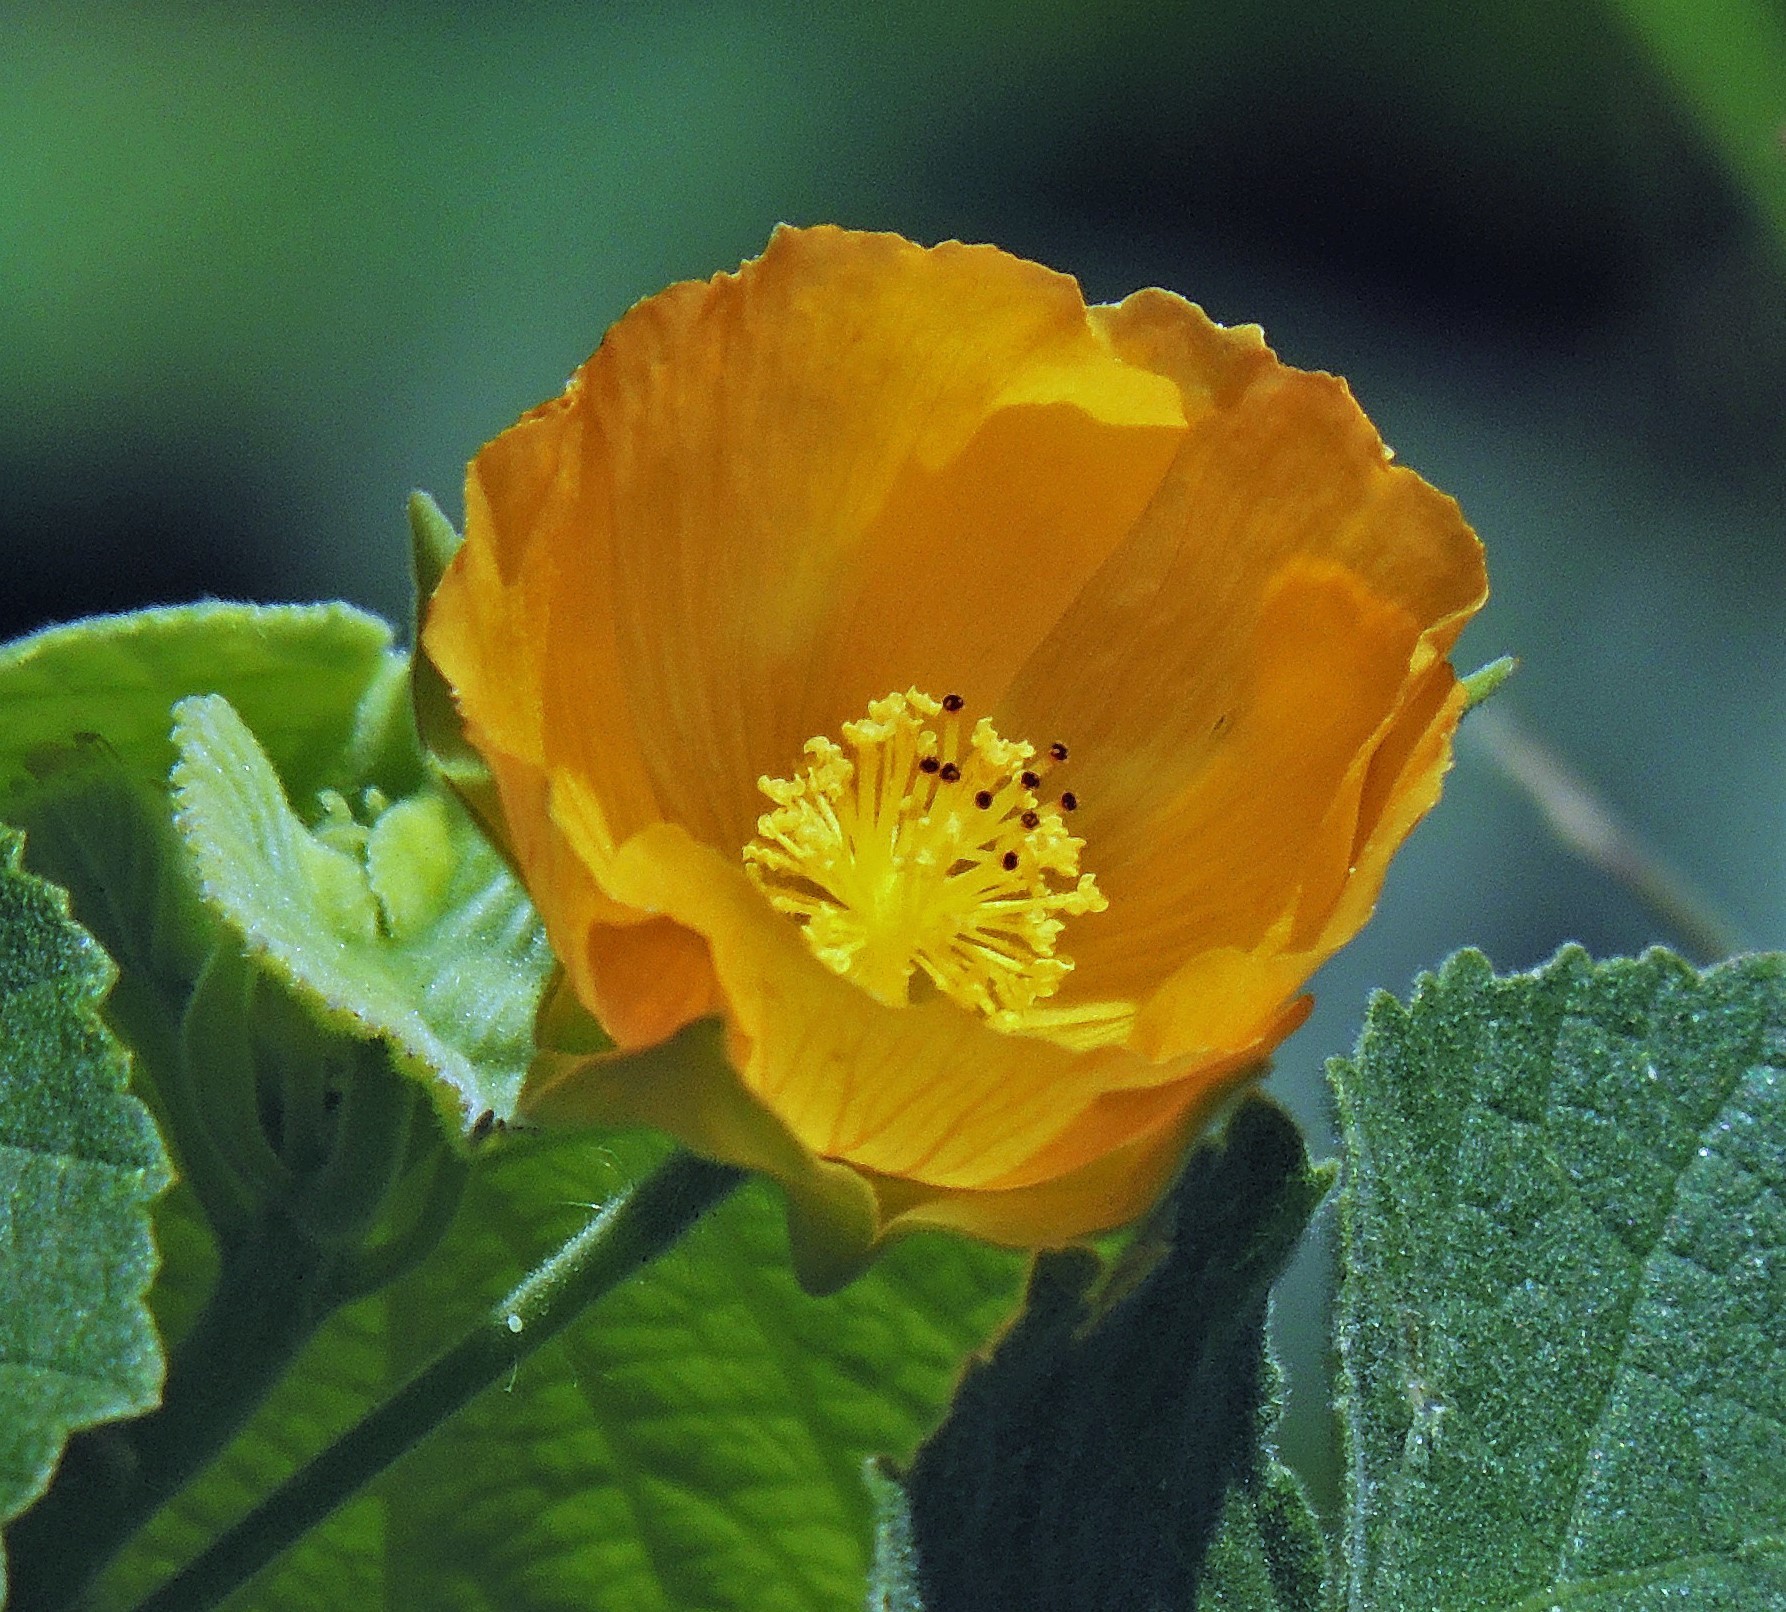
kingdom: Plantae
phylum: Tracheophyta
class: Magnoliopsida
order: Malvales
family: Malvaceae
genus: Abutilon
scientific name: Abutilon grandifolium
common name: Hairy abutilon
